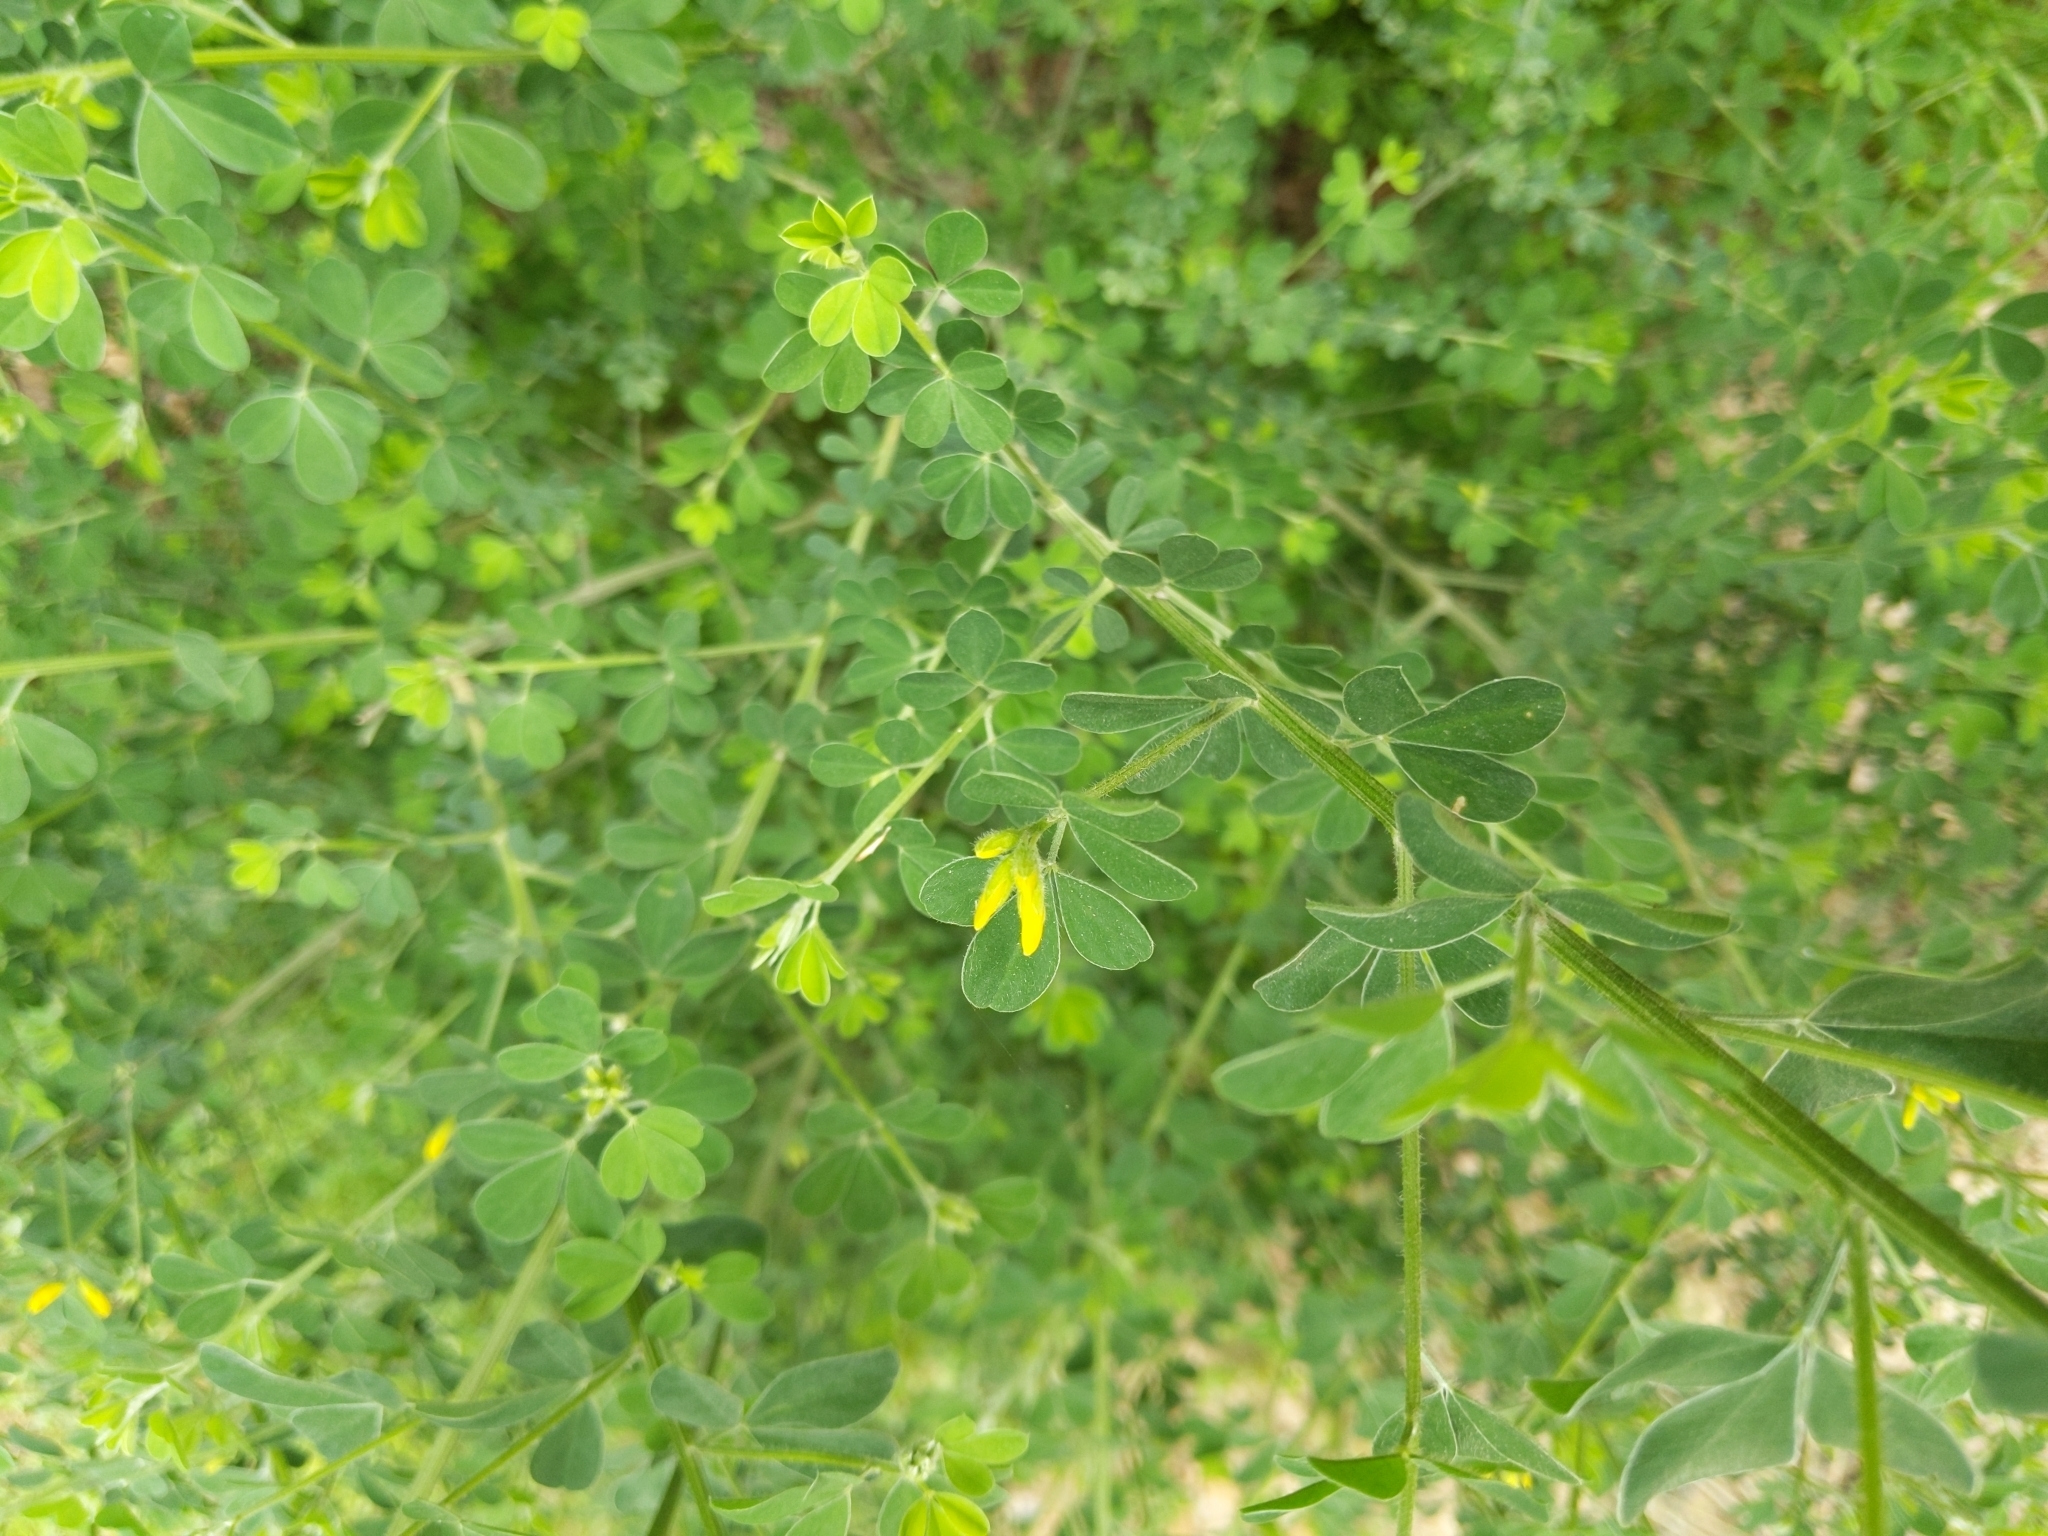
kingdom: Plantae
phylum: Tracheophyta
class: Magnoliopsida
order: Fabales
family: Fabaceae
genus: Genista
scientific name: Genista monspessulana
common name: Montpellier broom
